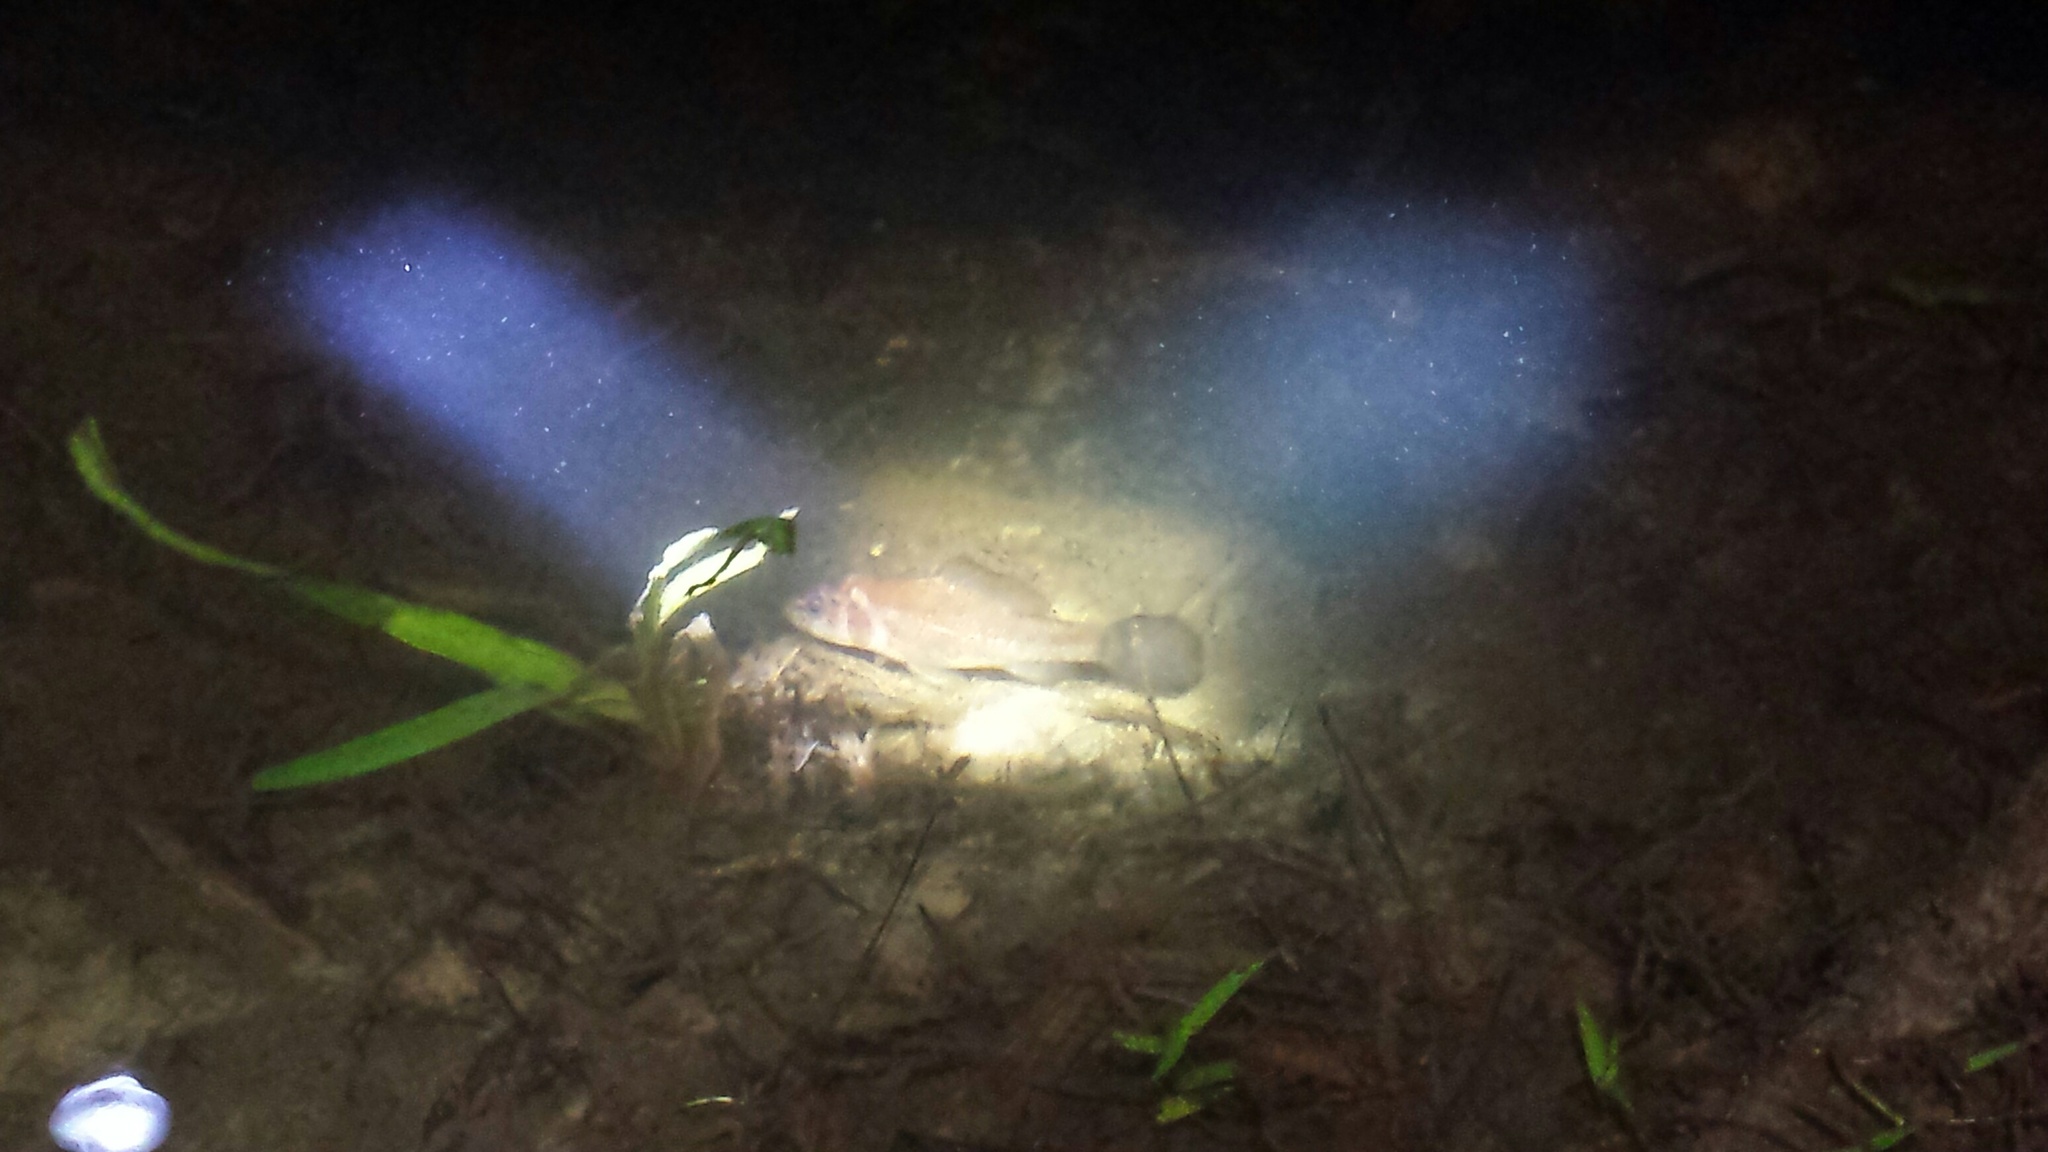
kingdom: Animalia
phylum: Chordata
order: Percopsiformes
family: Aphredoderidae
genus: Aphredoderus
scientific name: Aphredoderus
